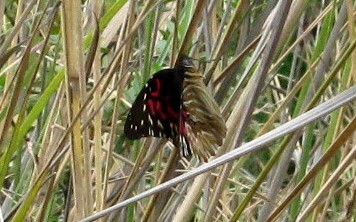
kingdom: Animalia
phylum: Arthropoda
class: Insecta
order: Lepidoptera
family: Nymphalidae
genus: Anetia
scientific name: Anetia thirza
